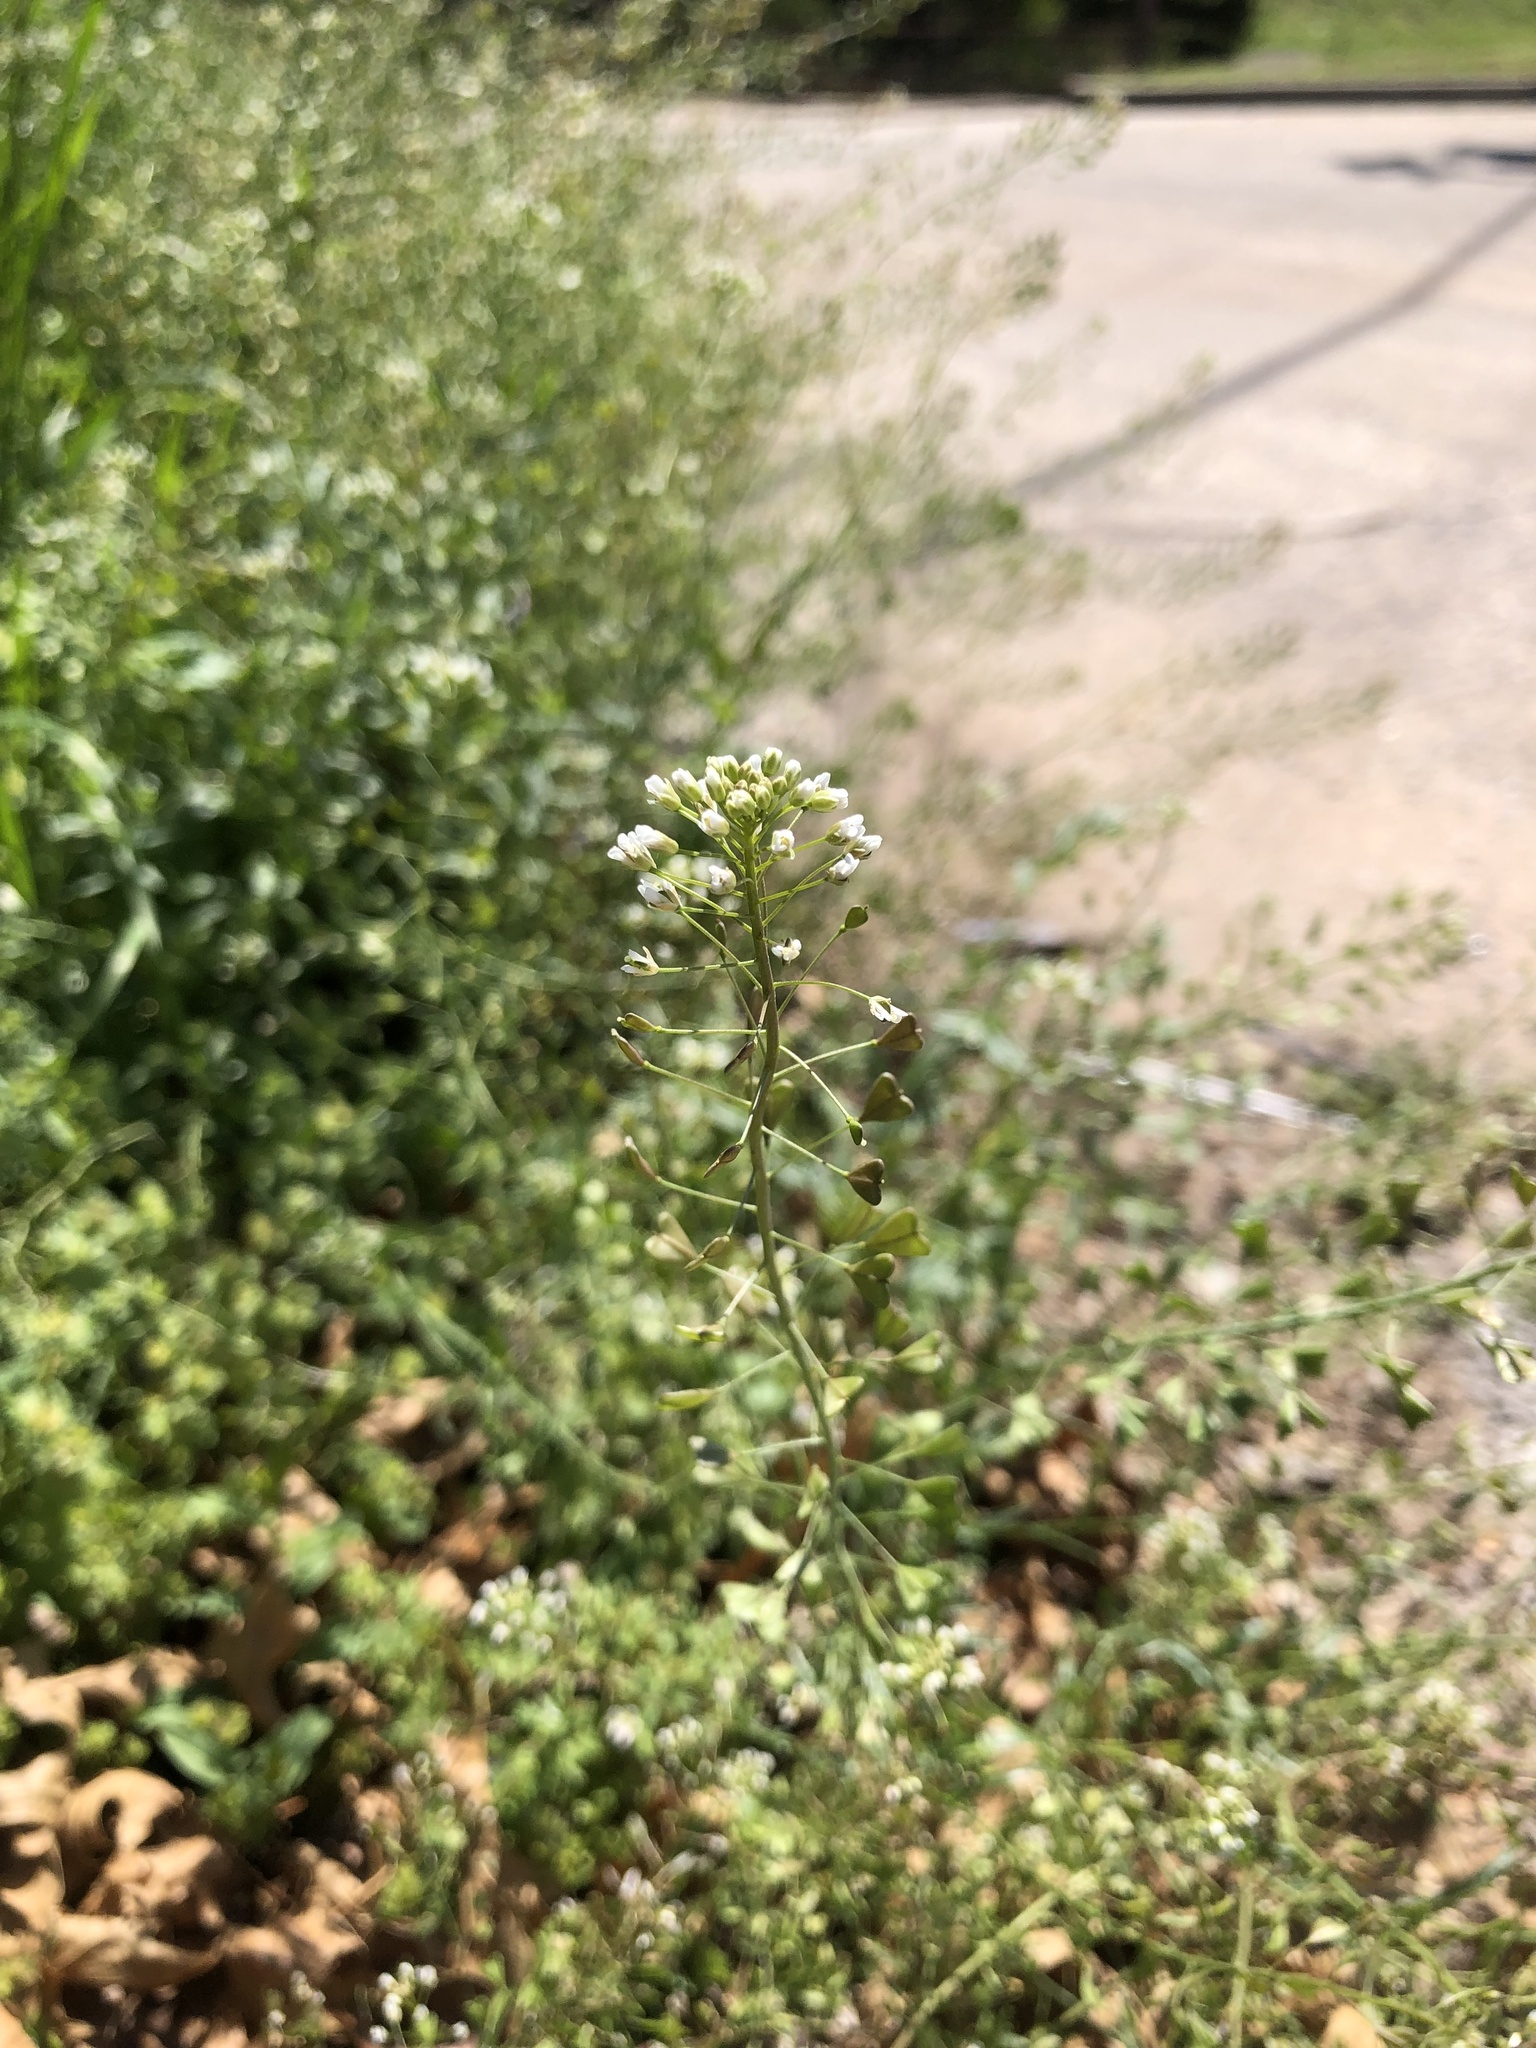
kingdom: Plantae
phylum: Tracheophyta
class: Magnoliopsida
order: Brassicales
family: Brassicaceae
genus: Capsella
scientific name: Capsella bursa-pastoris
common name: Shepherd's purse
